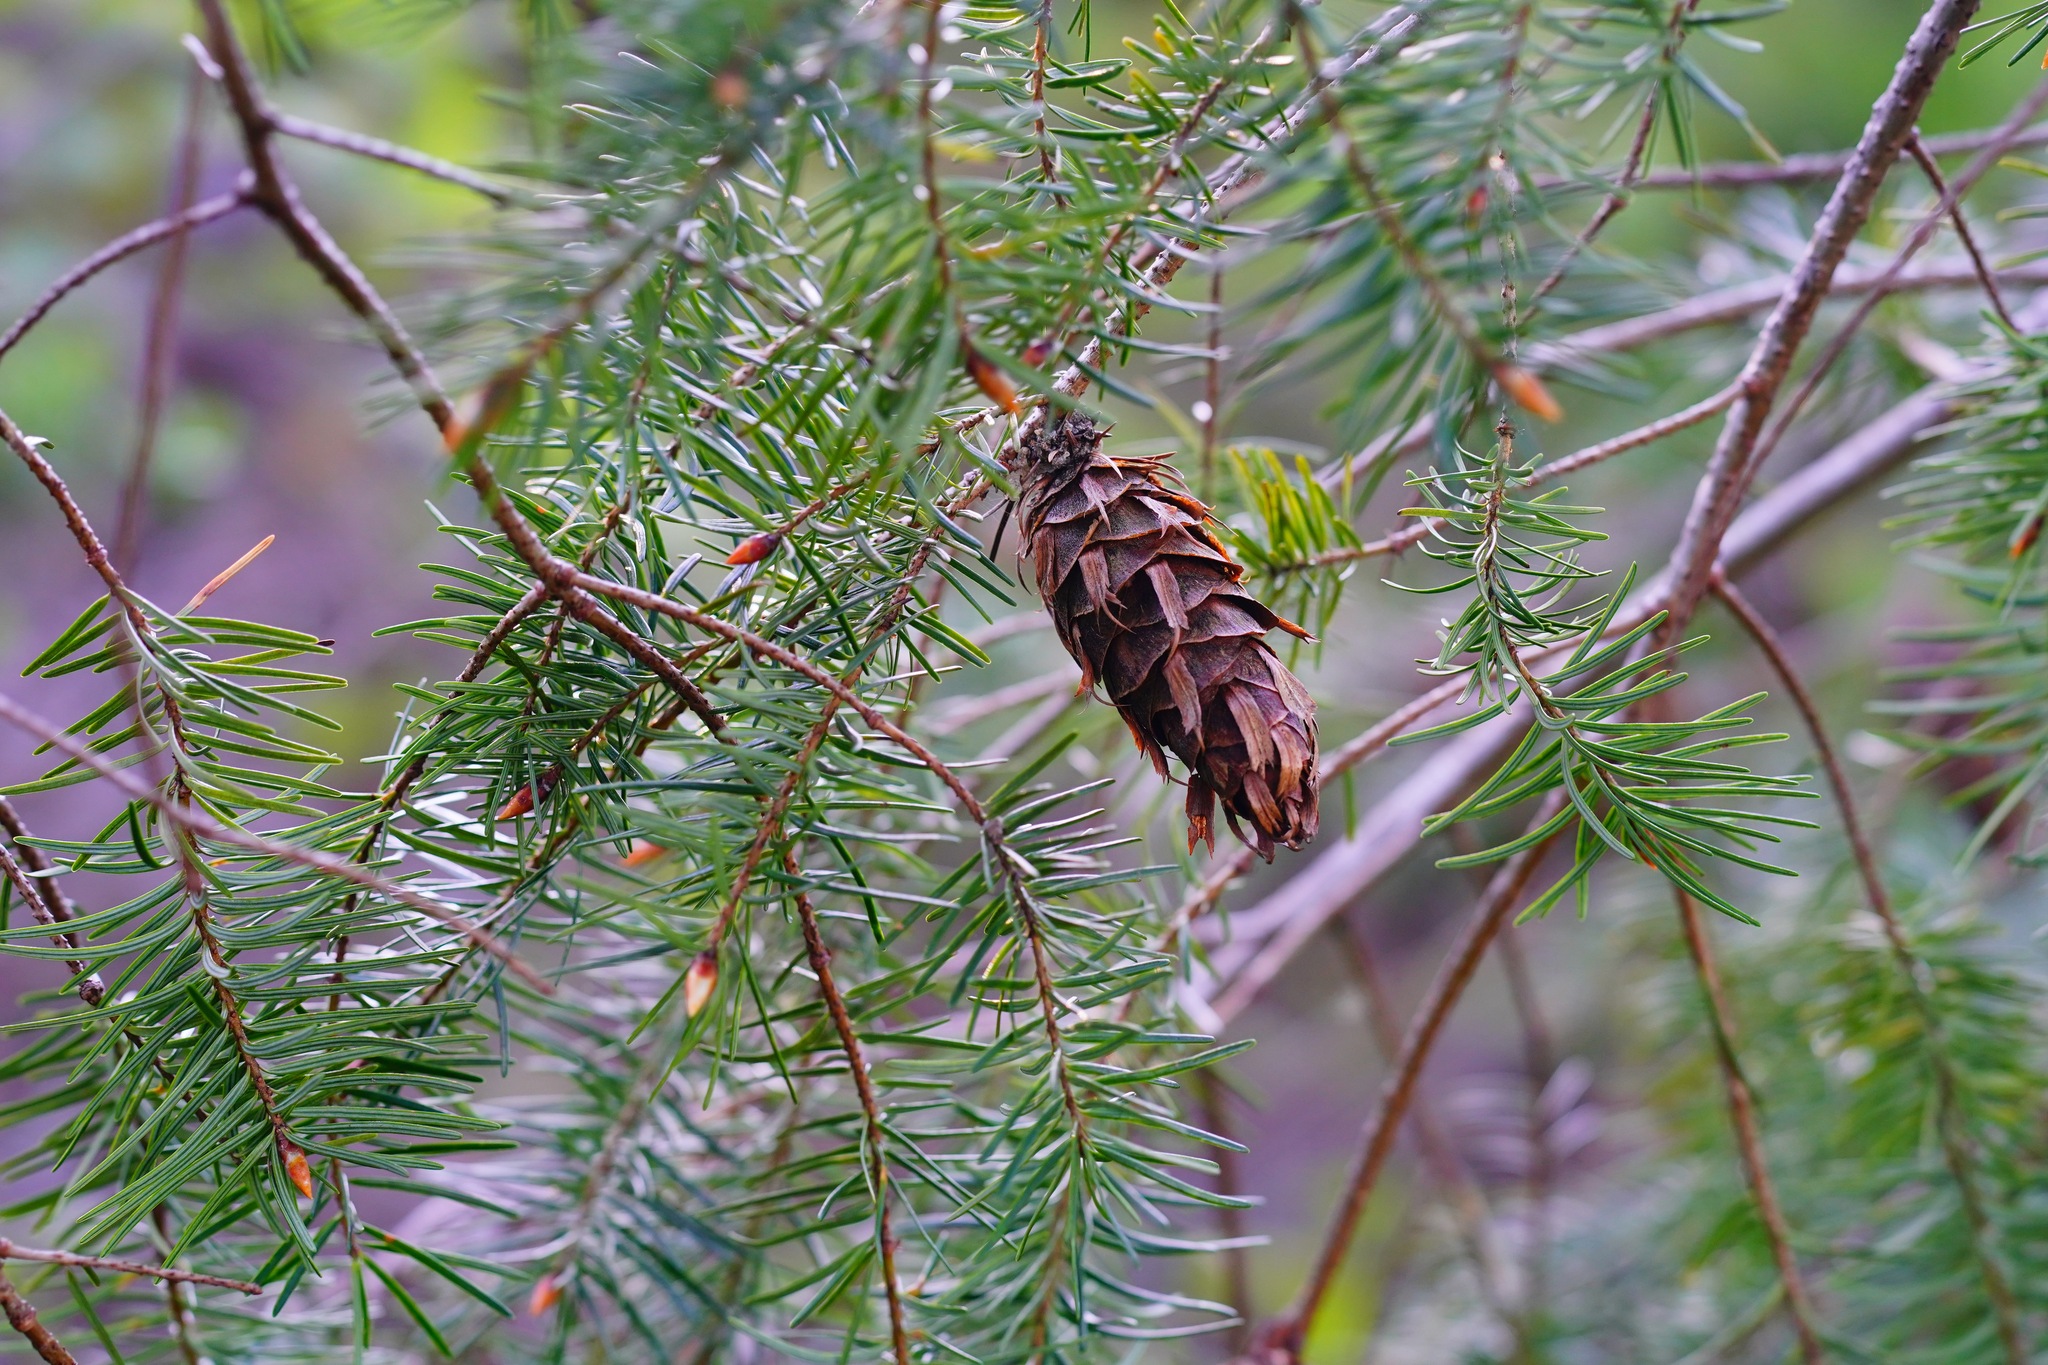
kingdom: Plantae
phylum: Tracheophyta
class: Pinopsida
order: Pinales
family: Pinaceae
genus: Pseudotsuga
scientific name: Pseudotsuga menziesii
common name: Douglas fir
